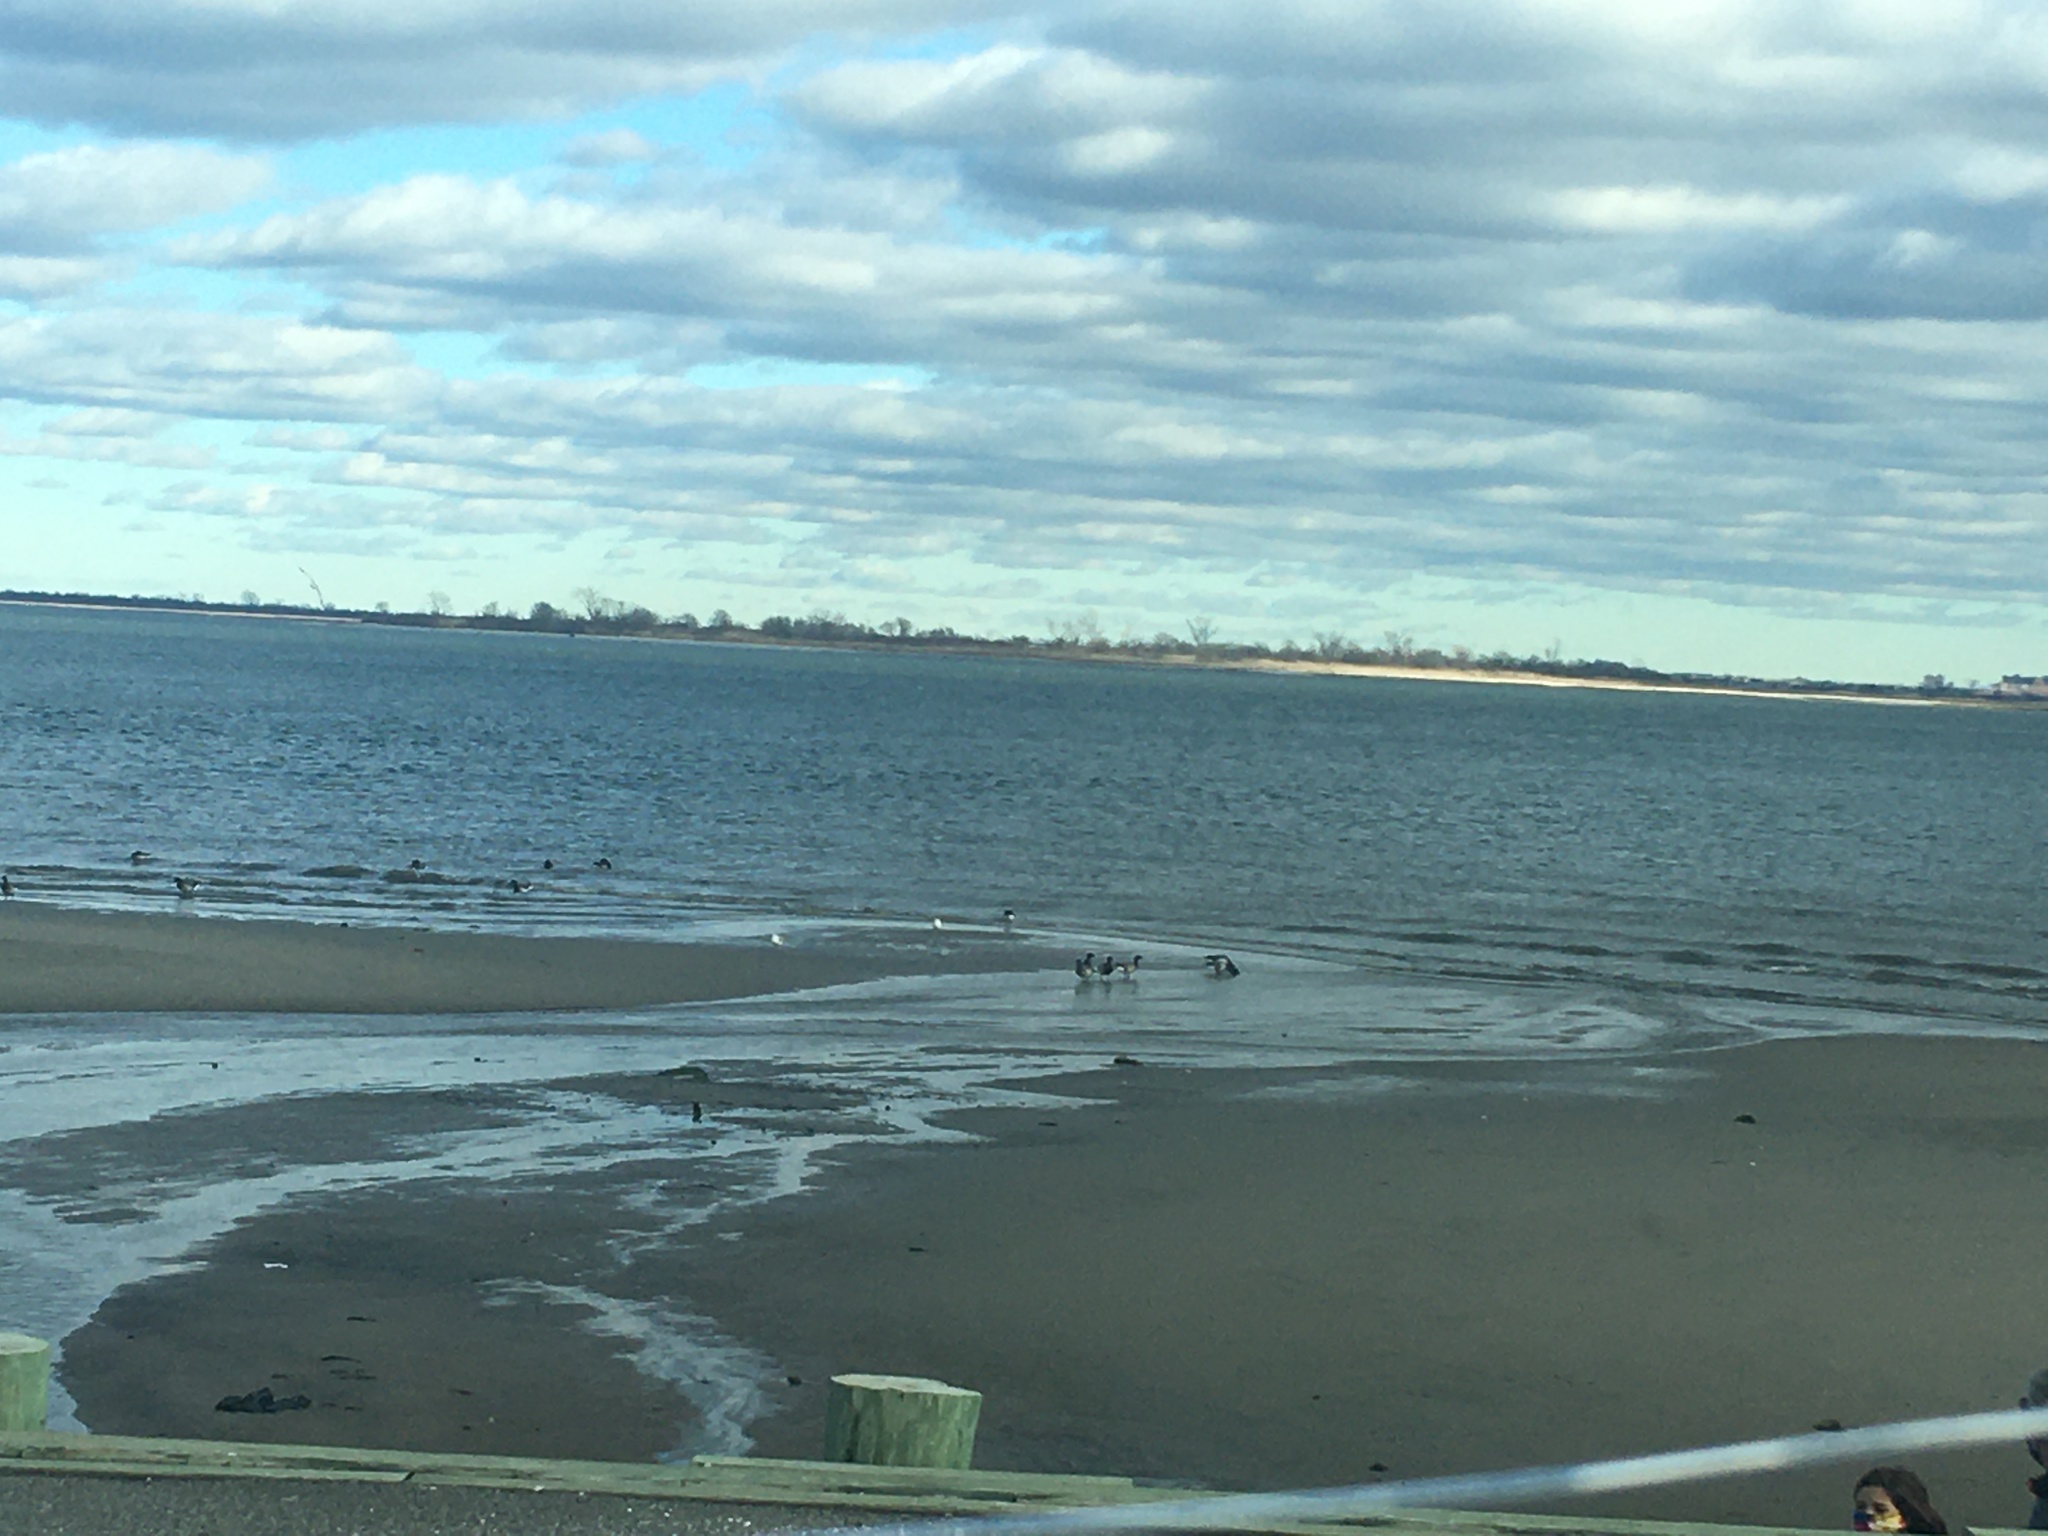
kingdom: Animalia
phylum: Chordata
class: Aves
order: Anseriformes
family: Anatidae
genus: Branta
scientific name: Branta bernicla
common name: Brant goose
